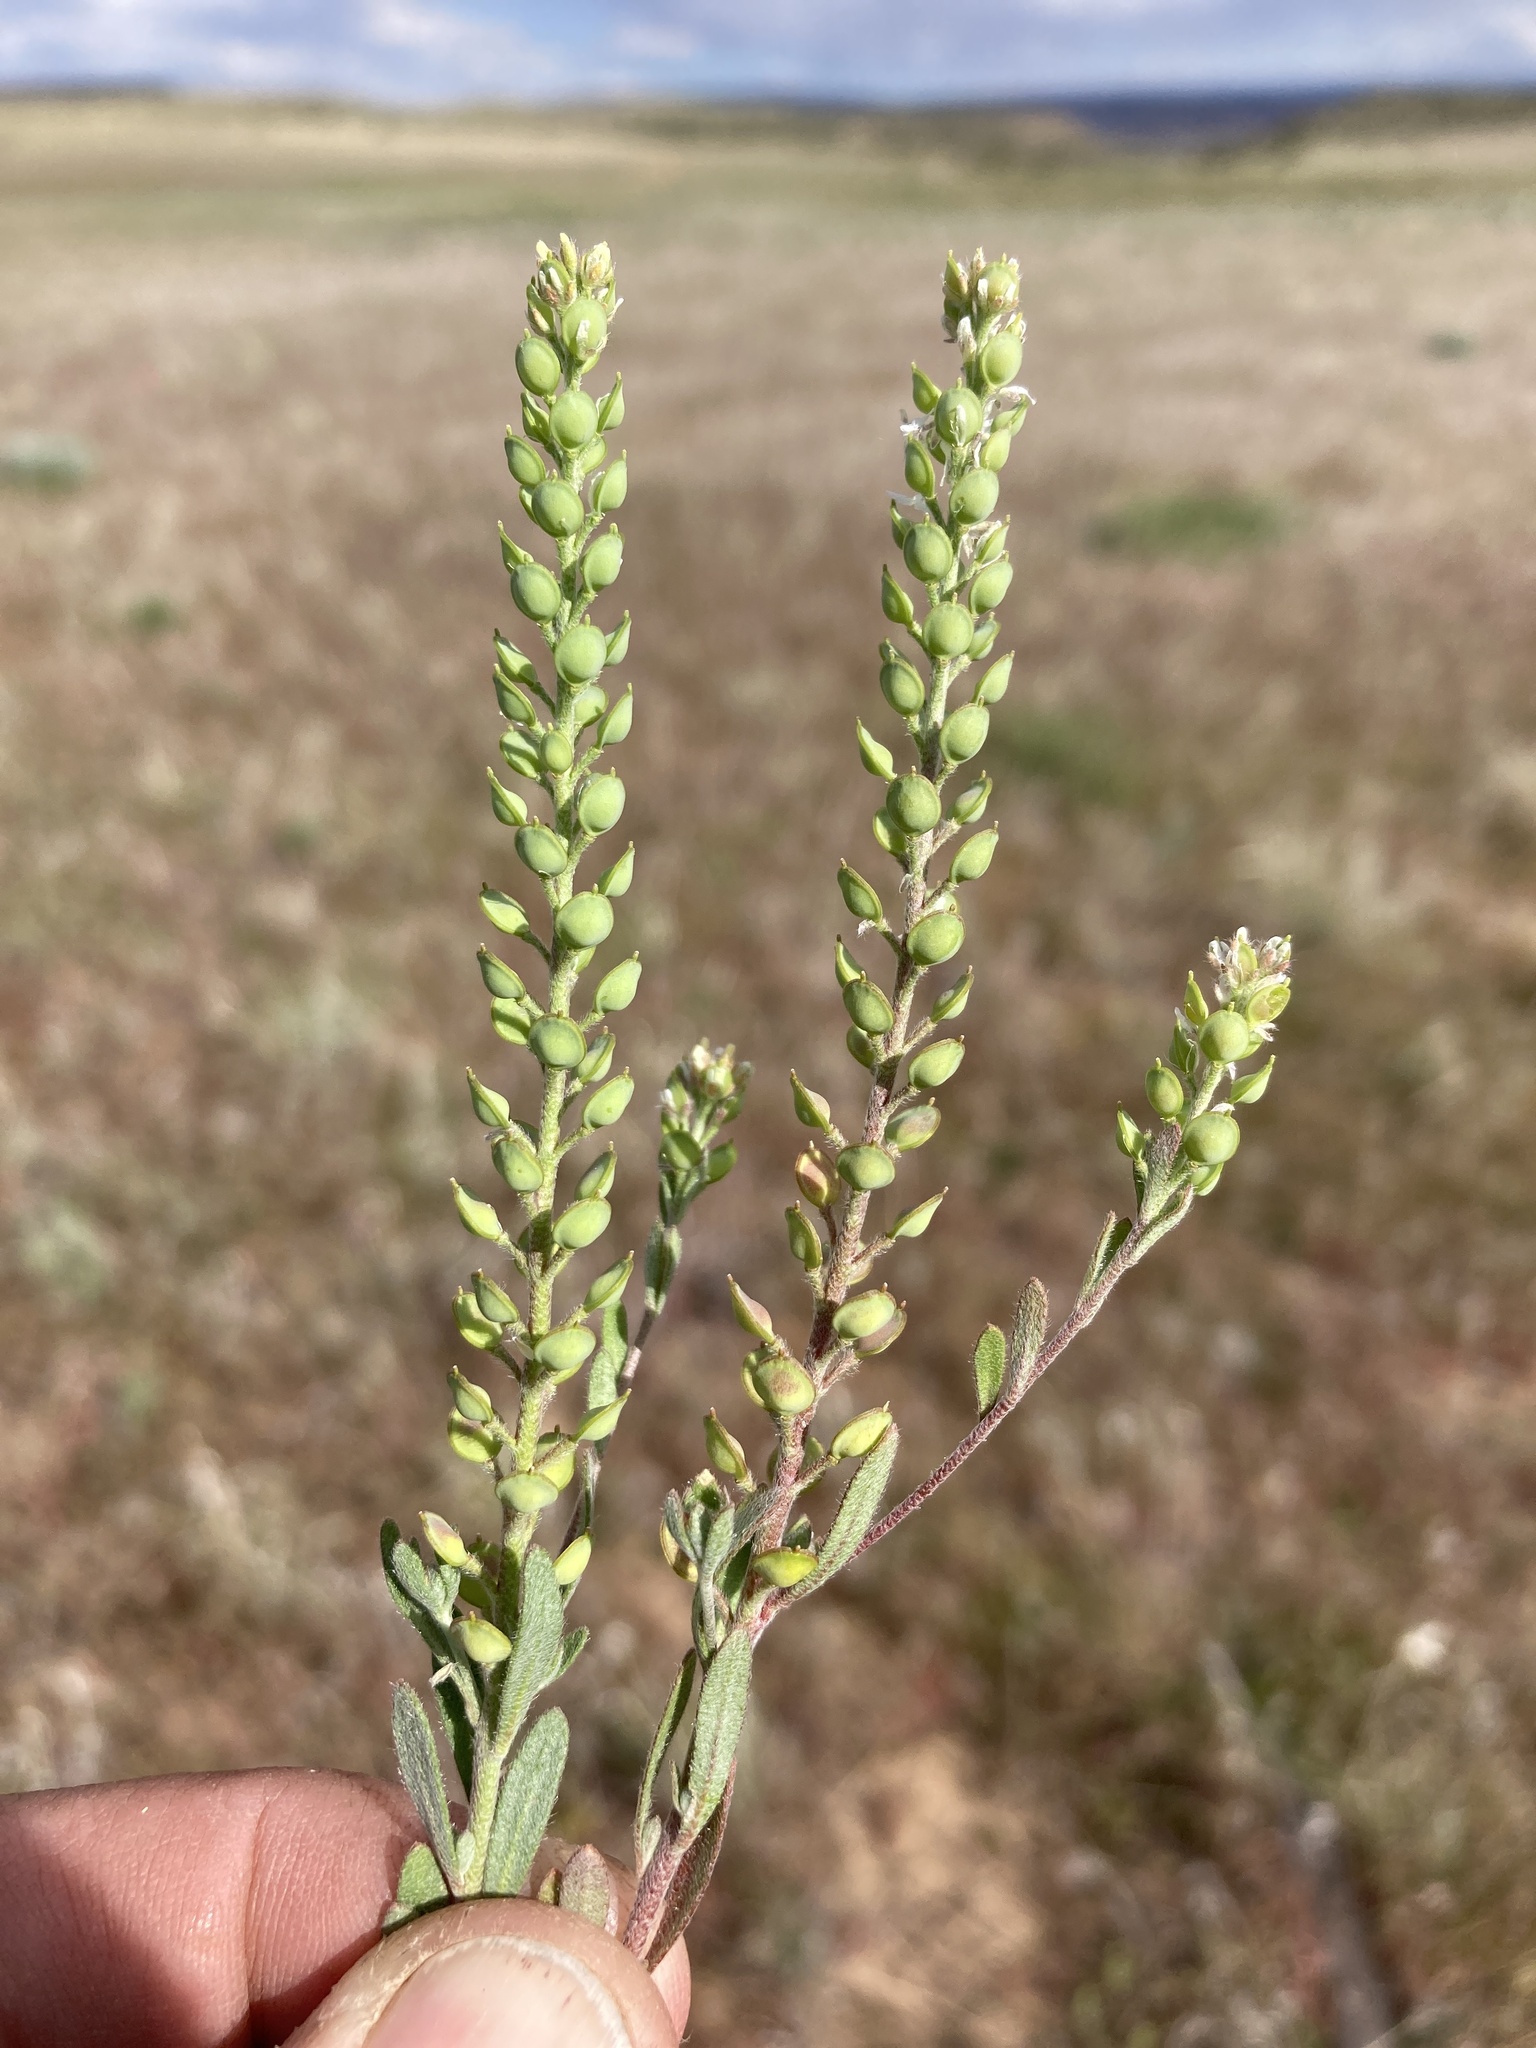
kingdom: Plantae
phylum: Tracheophyta
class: Magnoliopsida
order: Brassicales
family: Brassicaceae
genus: Alyssum
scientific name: Alyssum turkestanicum
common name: Desert alyssum
